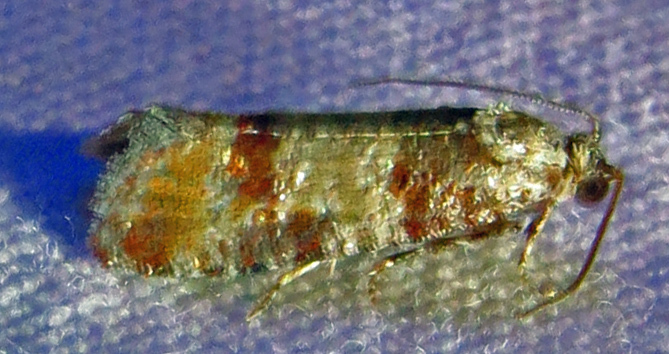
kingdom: Animalia
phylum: Arthropoda
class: Insecta
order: Lepidoptera
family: Tortricidae
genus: Rhyacionia
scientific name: Rhyacionia rigidana
